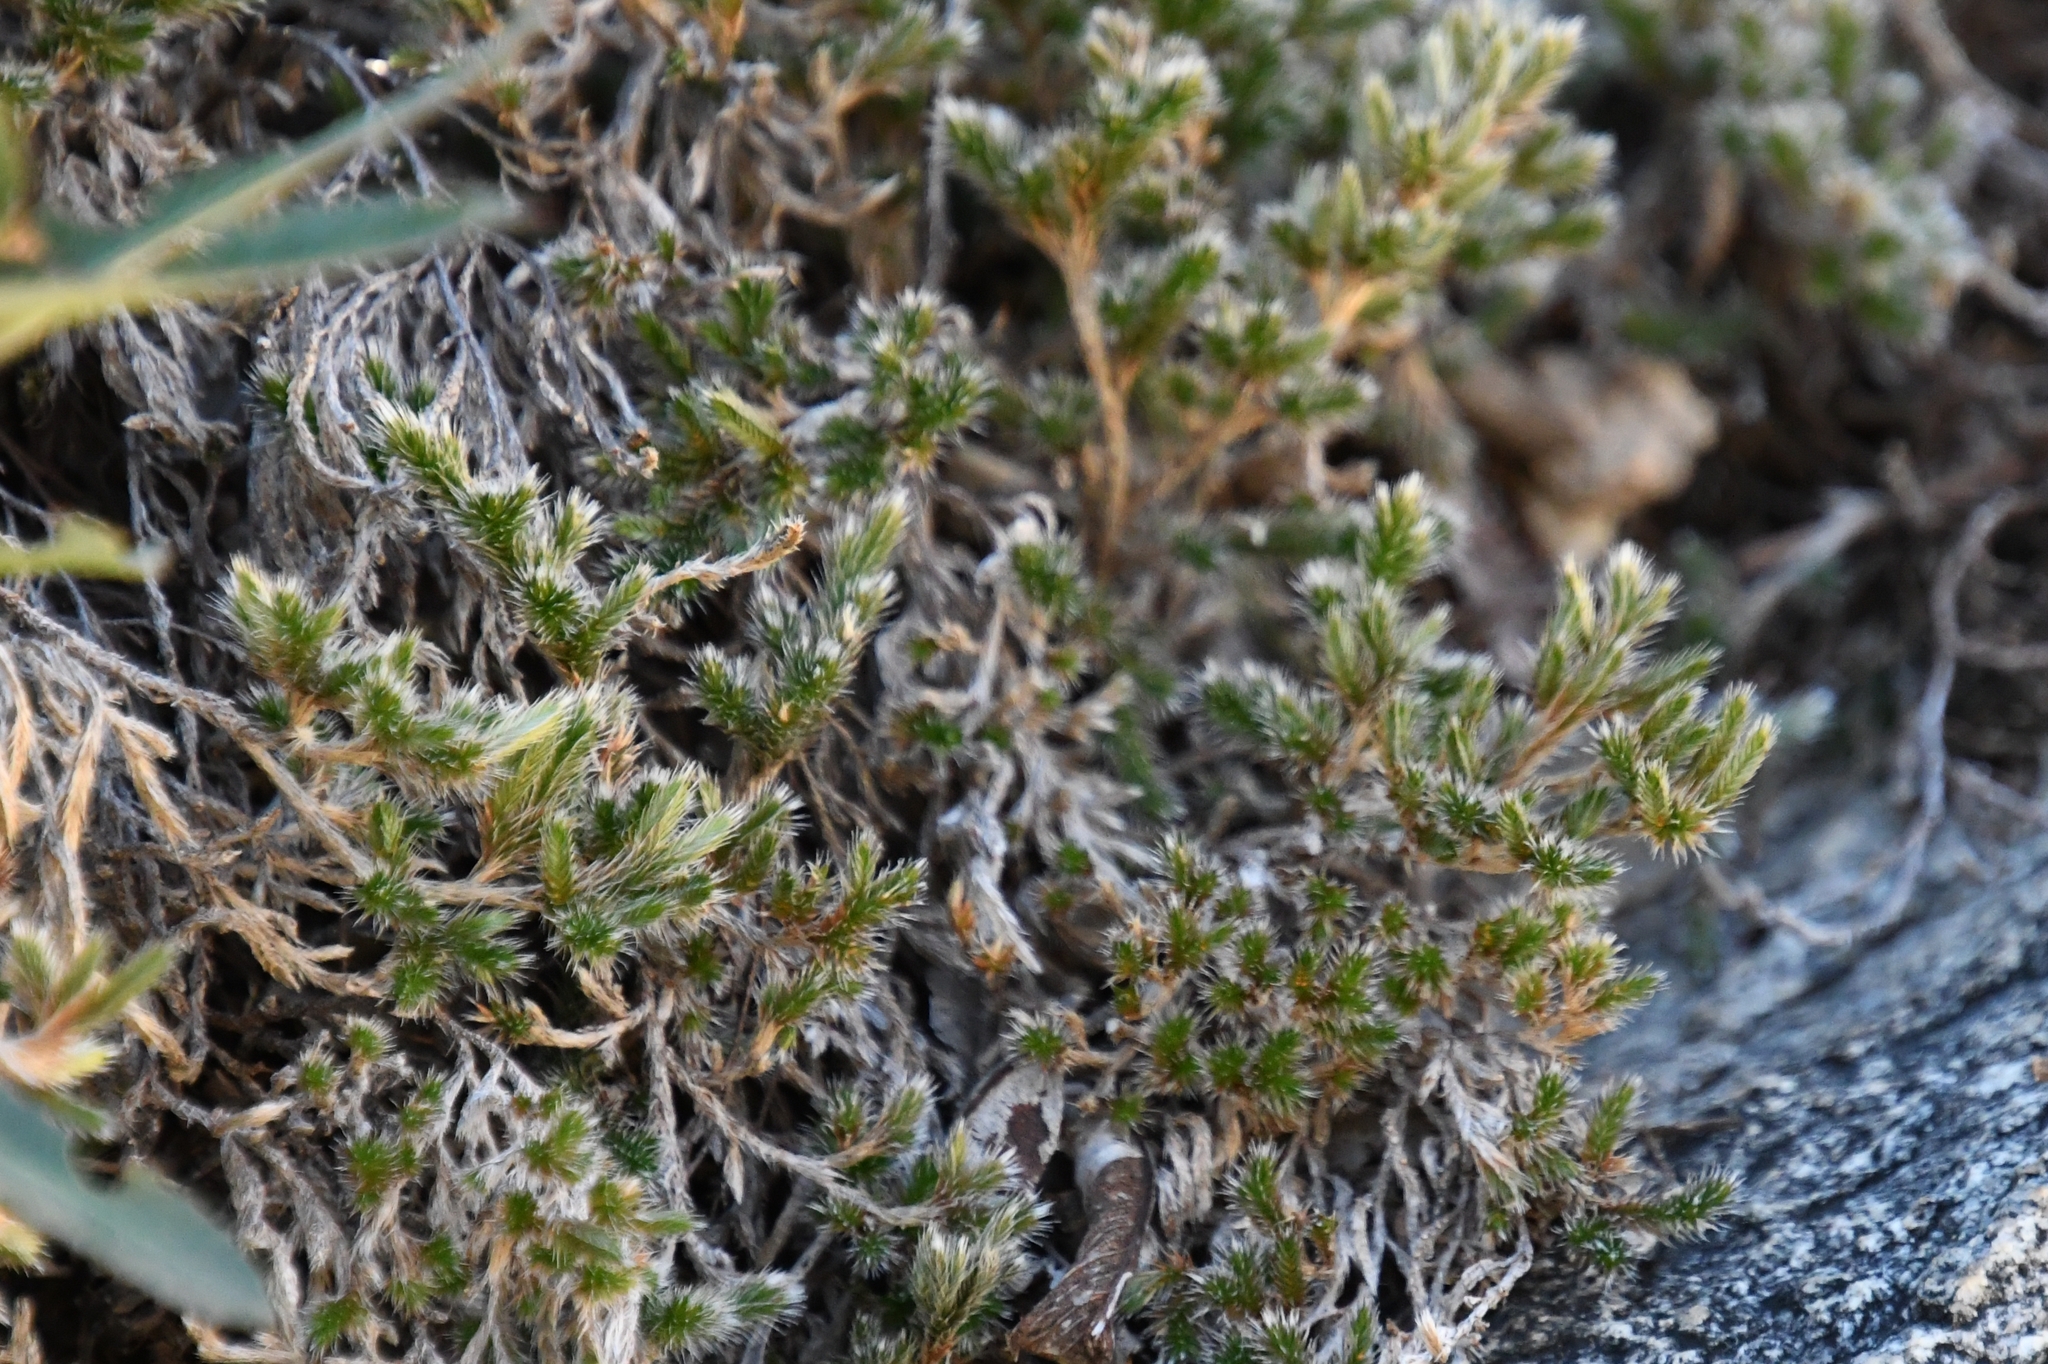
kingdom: Plantae
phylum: Tracheophyta
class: Lycopodiopsida
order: Selaginellales
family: Selaginellaceae
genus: Selaginella
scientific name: Selaginella rupincola
